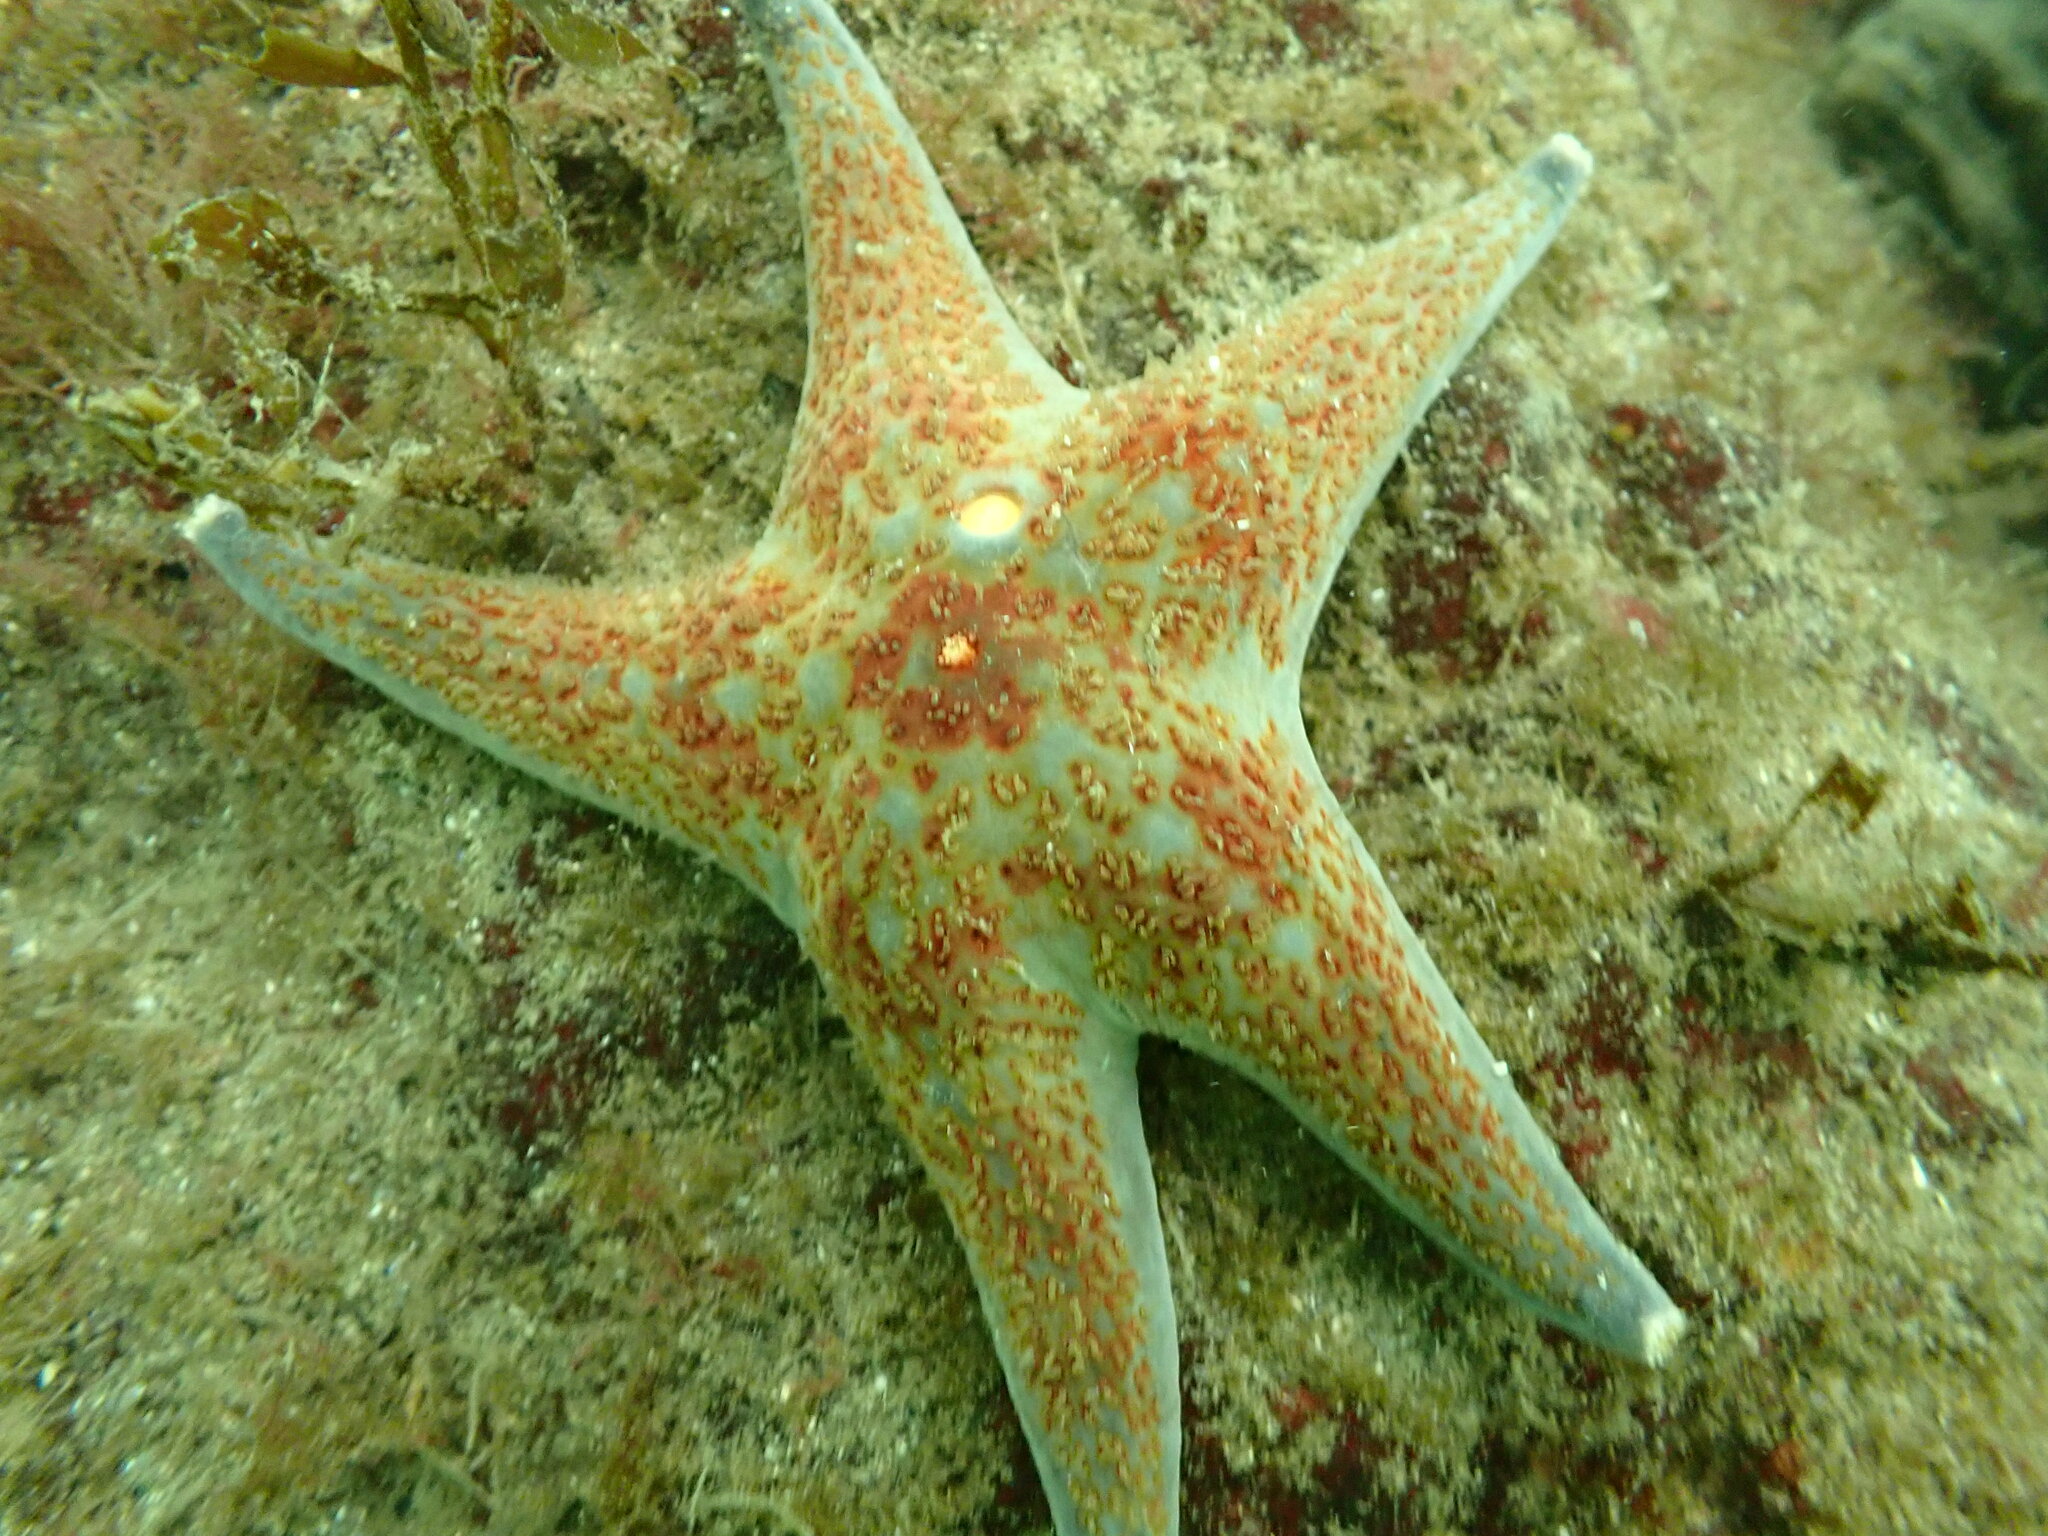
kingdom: Animalia
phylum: Echinodermata
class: Asteroidea
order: Valvatida
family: Asteropseidae
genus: Dermasterias
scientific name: Dermasterias imbricata
